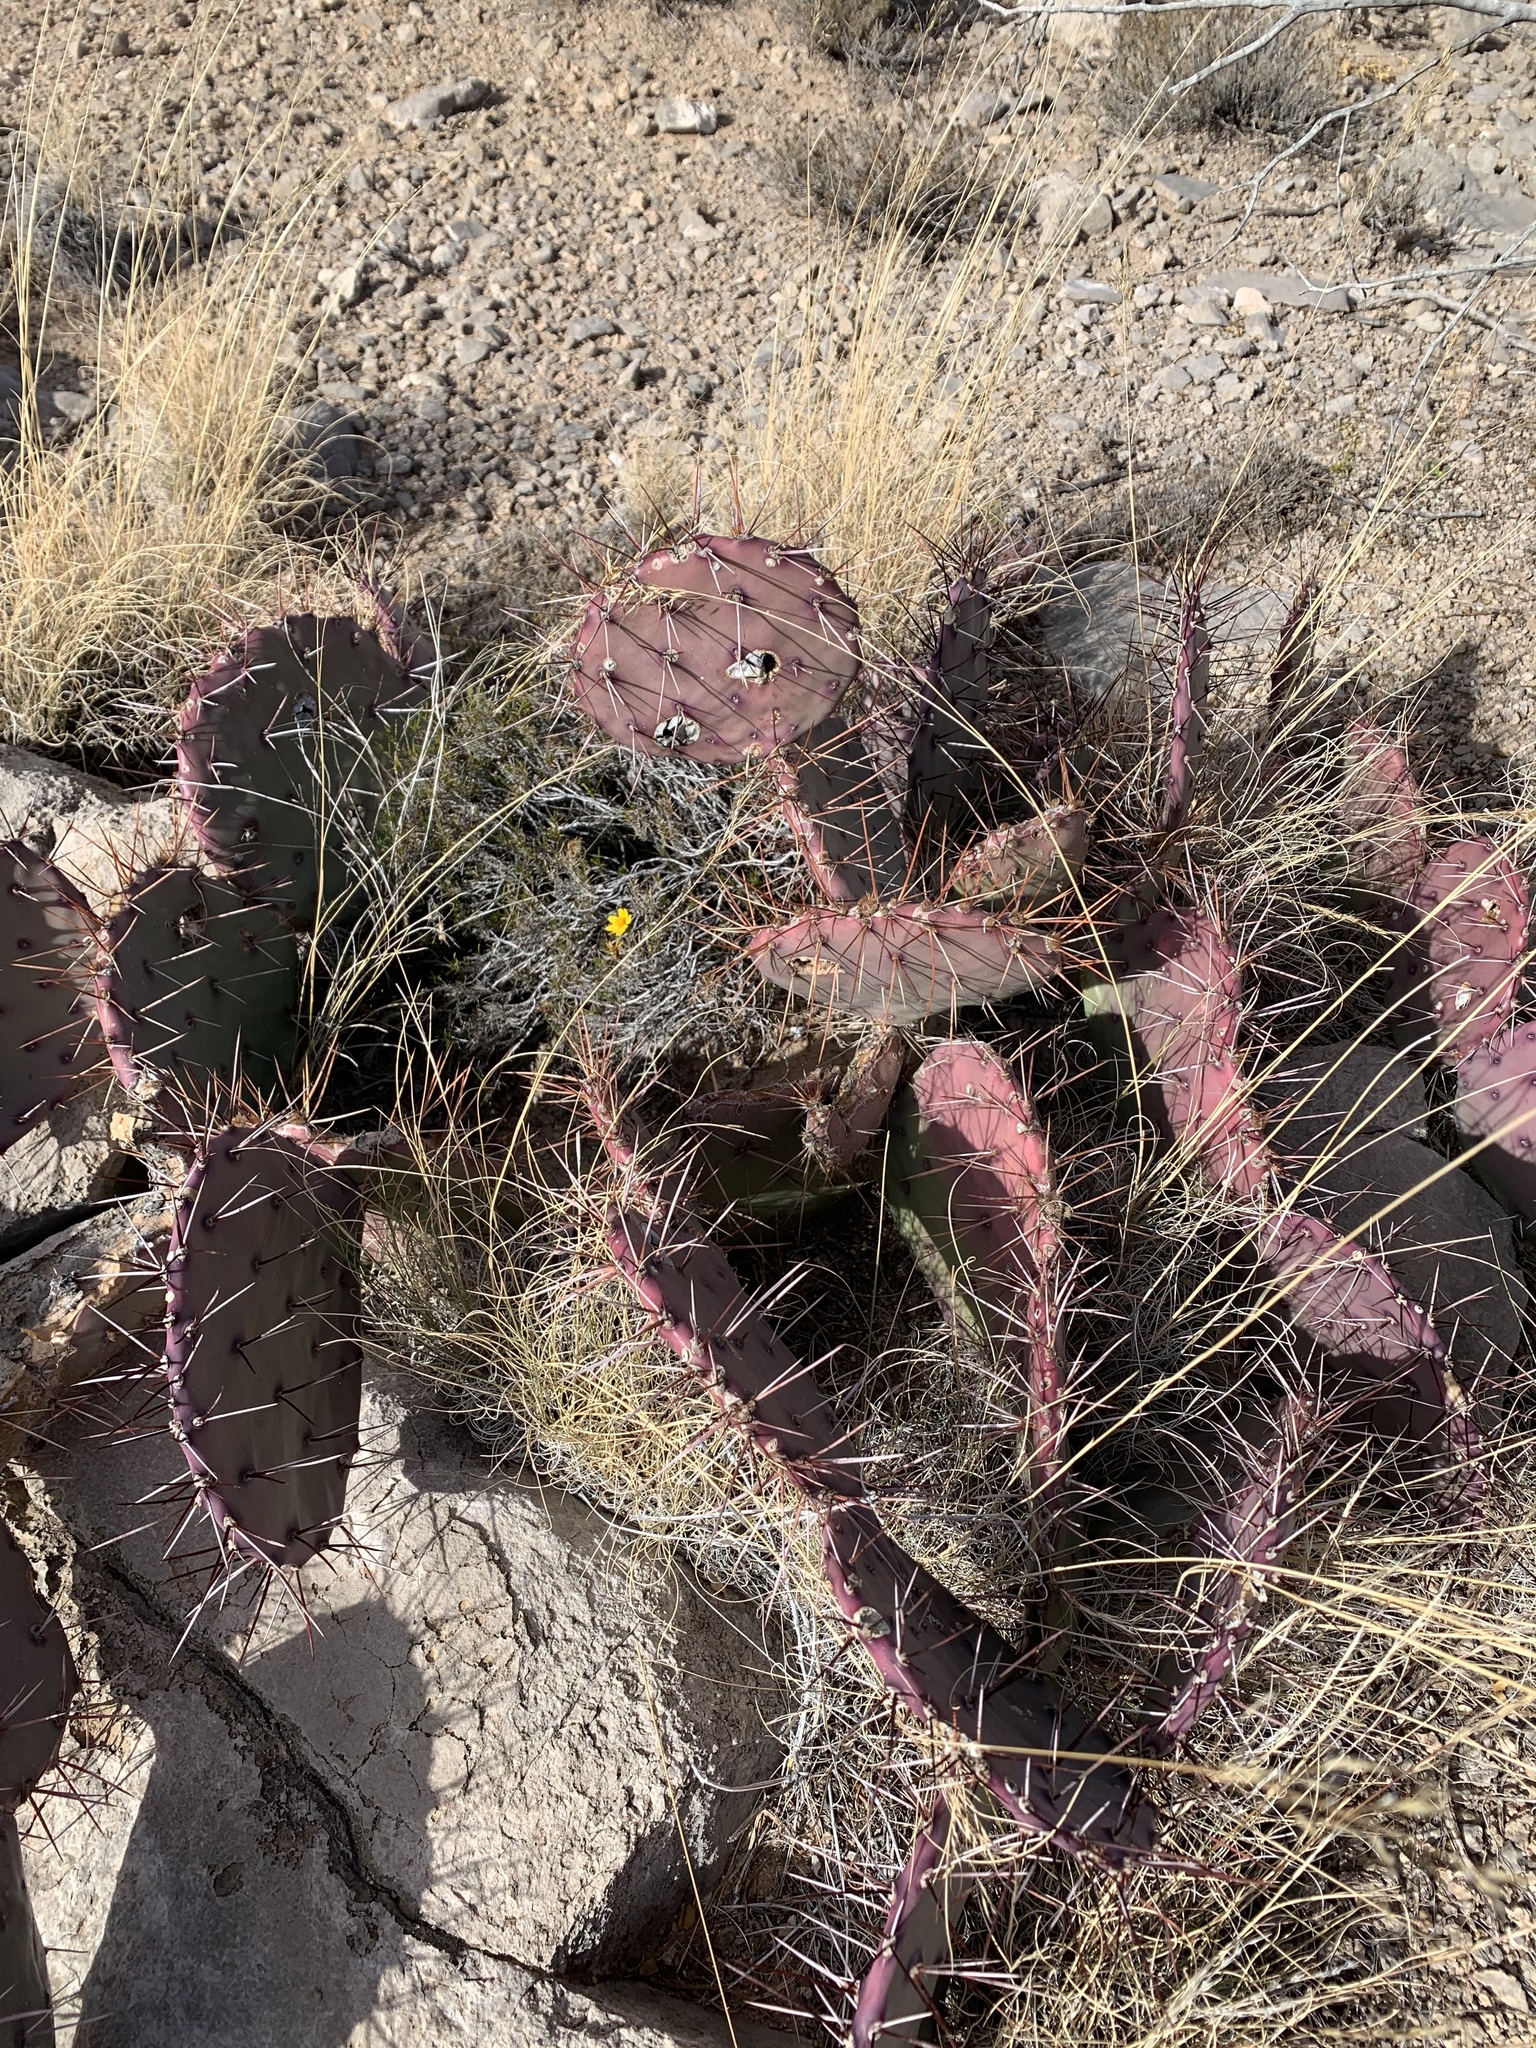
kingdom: Plantae
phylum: Tracheophyta
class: Magnoliopsida
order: Caryophyllales
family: Cactaceae
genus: Opuntia
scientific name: Opuntia macrocentra
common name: Purple prickly-pear
